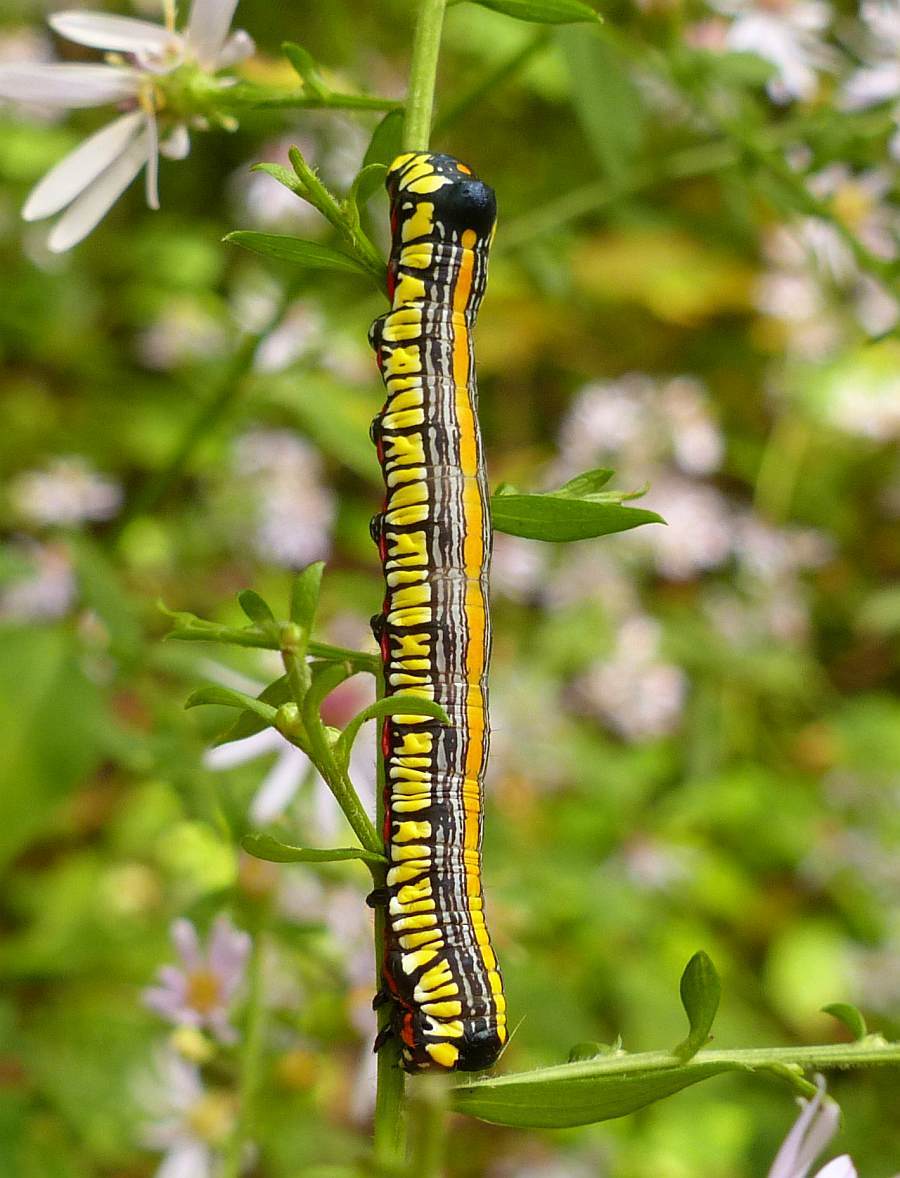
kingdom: Animalia
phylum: Arthropoda
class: Insecta
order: Lepidoptera
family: Noctuidae
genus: Cucullia
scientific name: Cucullia convexipennis
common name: Brown-hooded owlet
